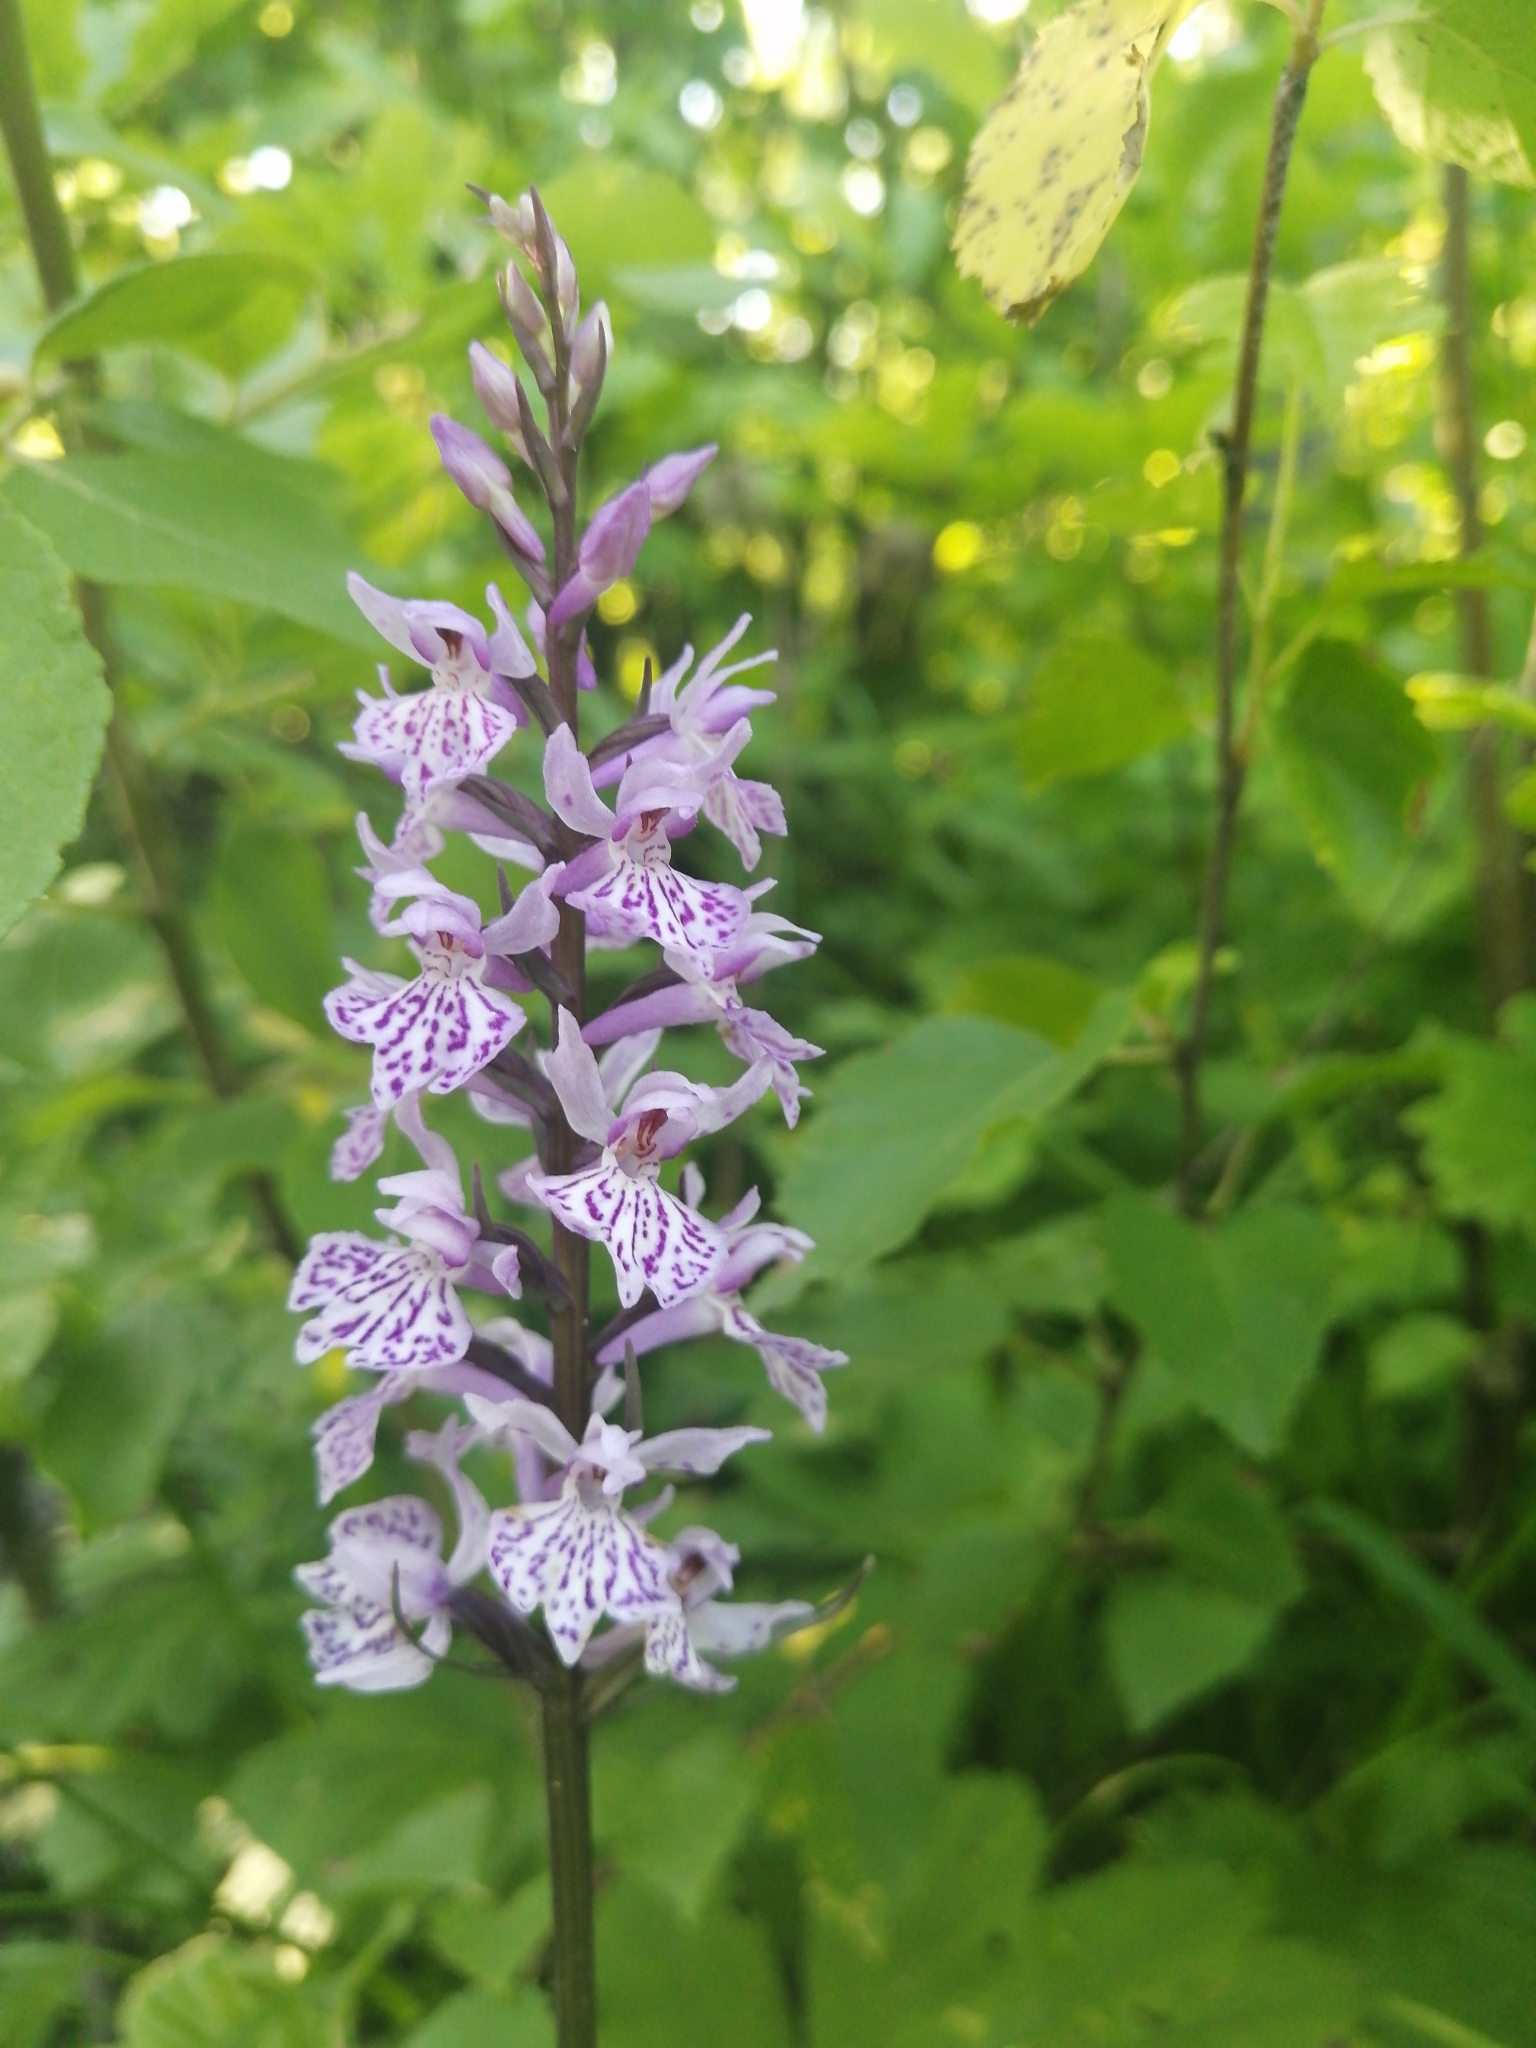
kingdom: Plantae
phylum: Tracheophyta
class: Liliopsida
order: Asparagales
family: Orchidaceae
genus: Dactylorhiza
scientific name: Dactylorhiza maculata
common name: Heath spotted-orchid
